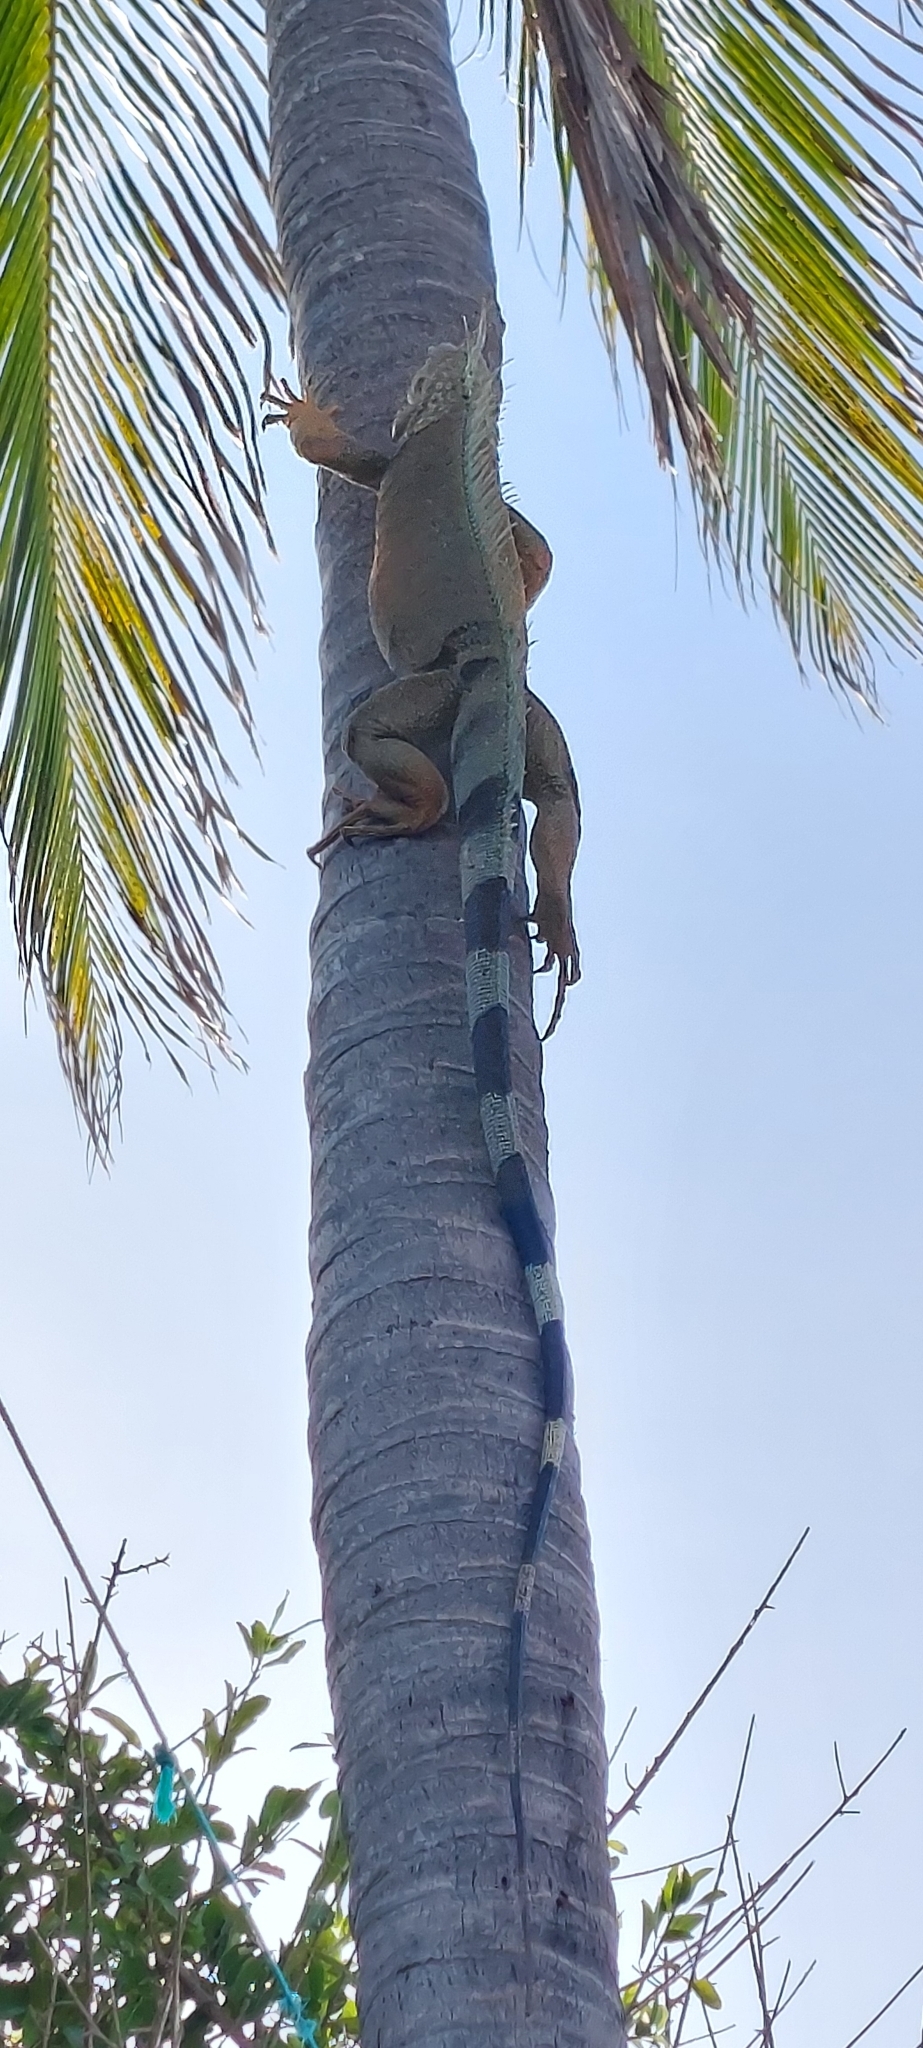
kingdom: Animalia
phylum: Chordata
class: Squamata
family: Iguanidae
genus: Iguana
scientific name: Iguana iguana
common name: Green iguana
